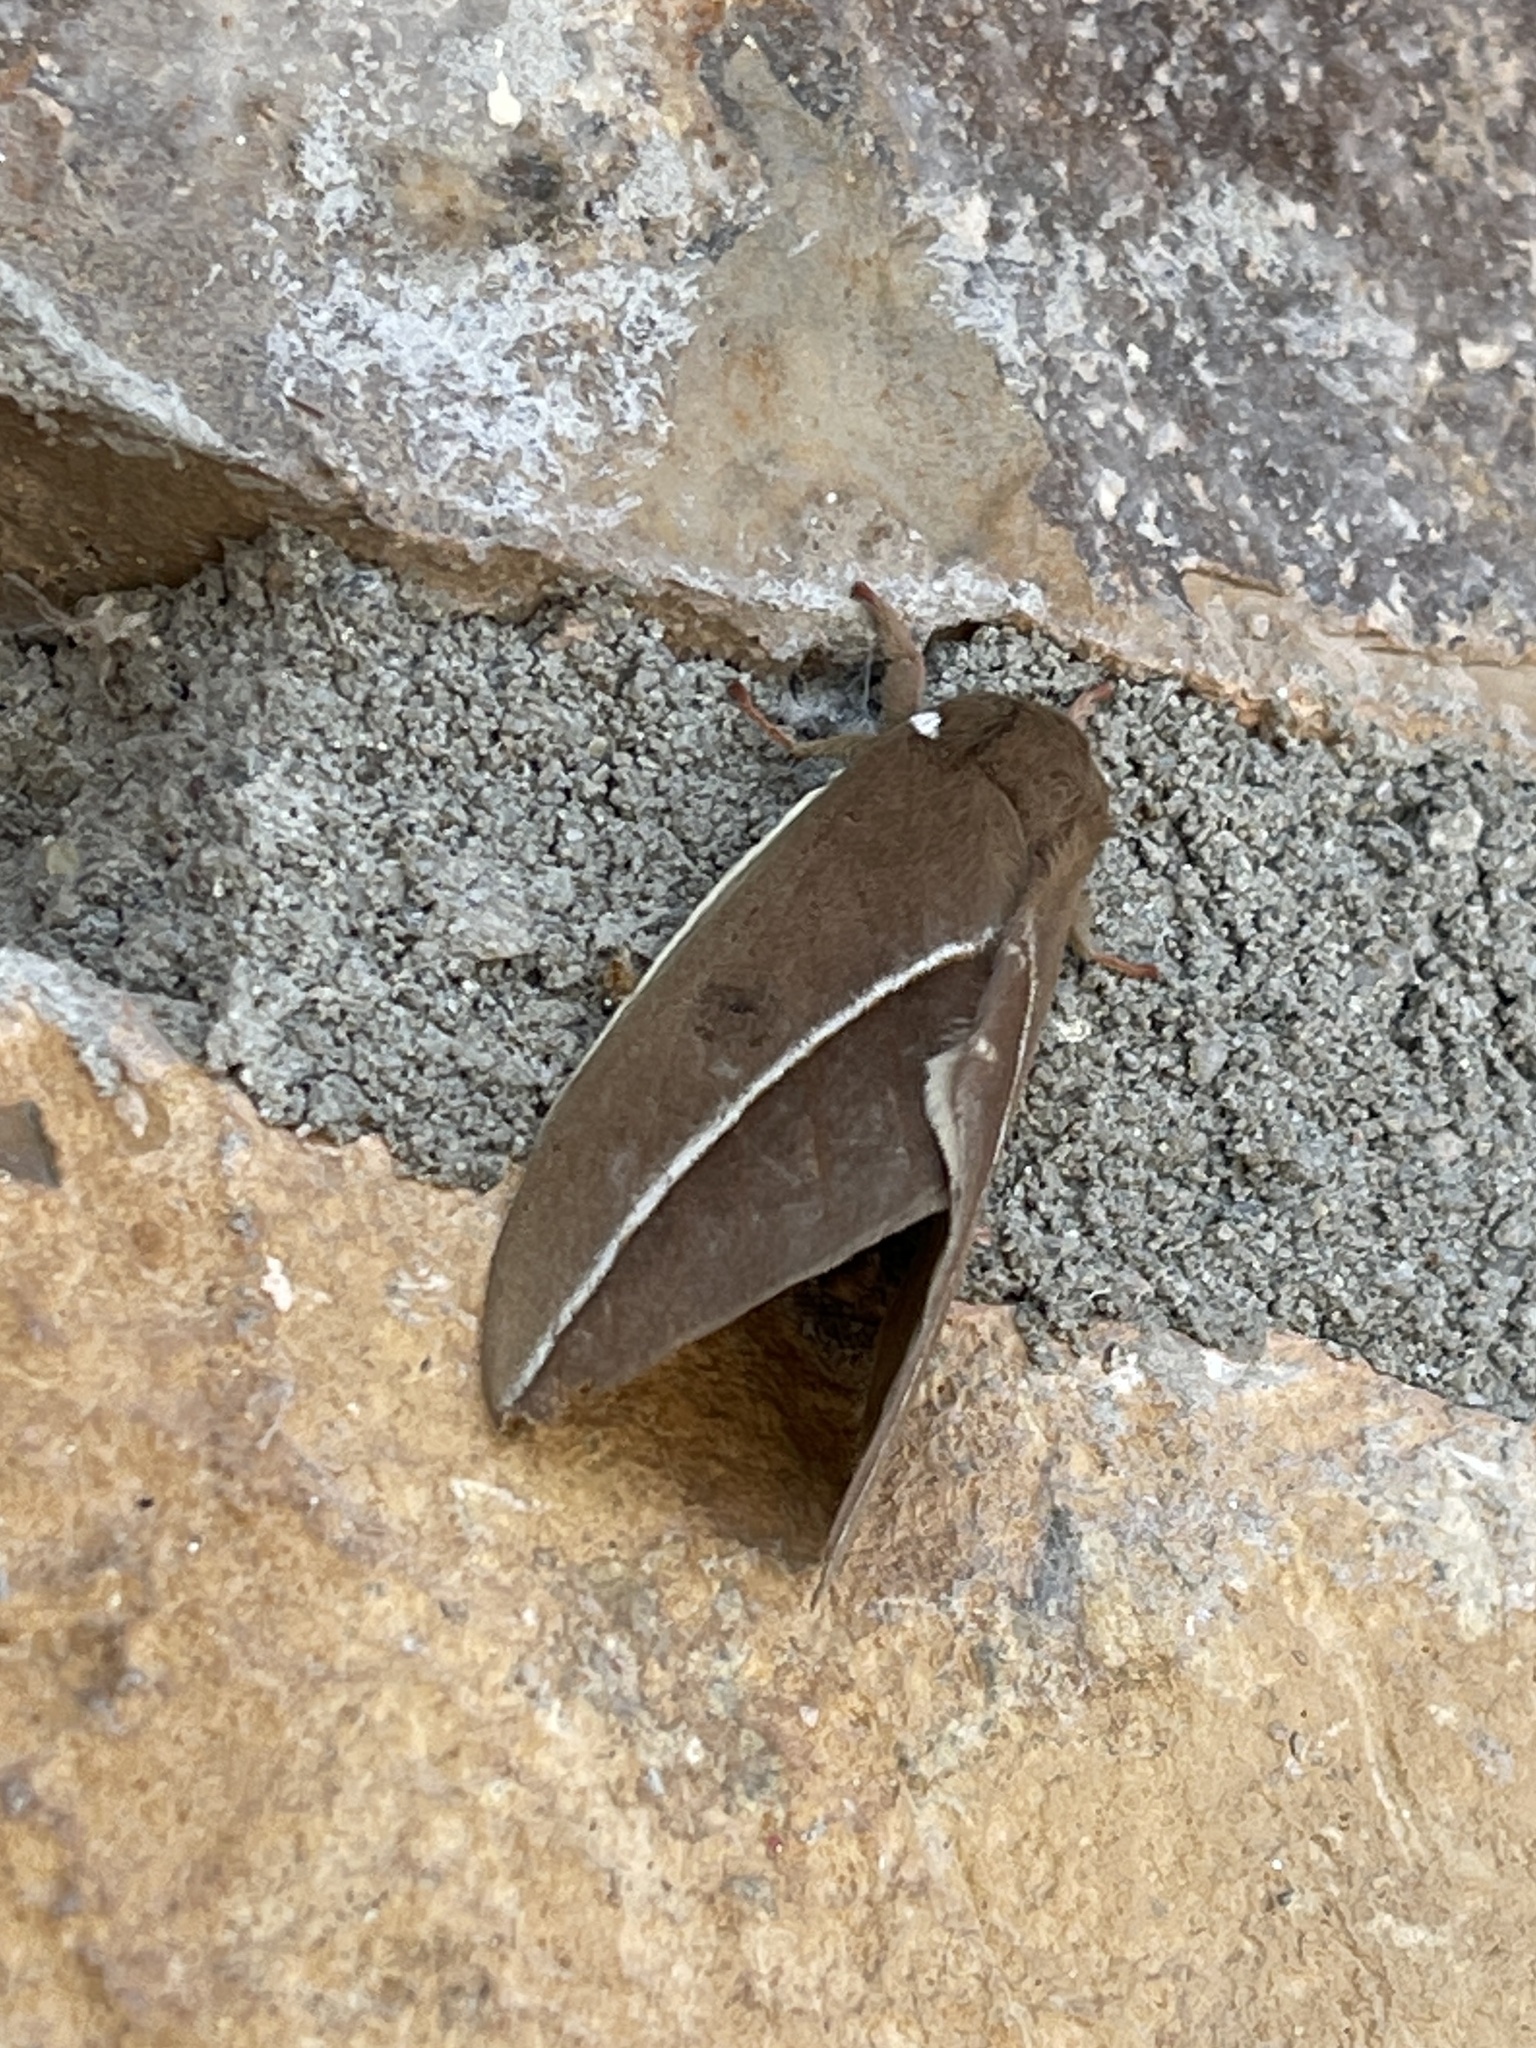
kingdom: Animalia
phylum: Arthropoda
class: Insecta
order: Lepidoptera
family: Saturniidae
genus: Automeris
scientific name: Automeris zephyria
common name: Zephyr eyed silkmoth
